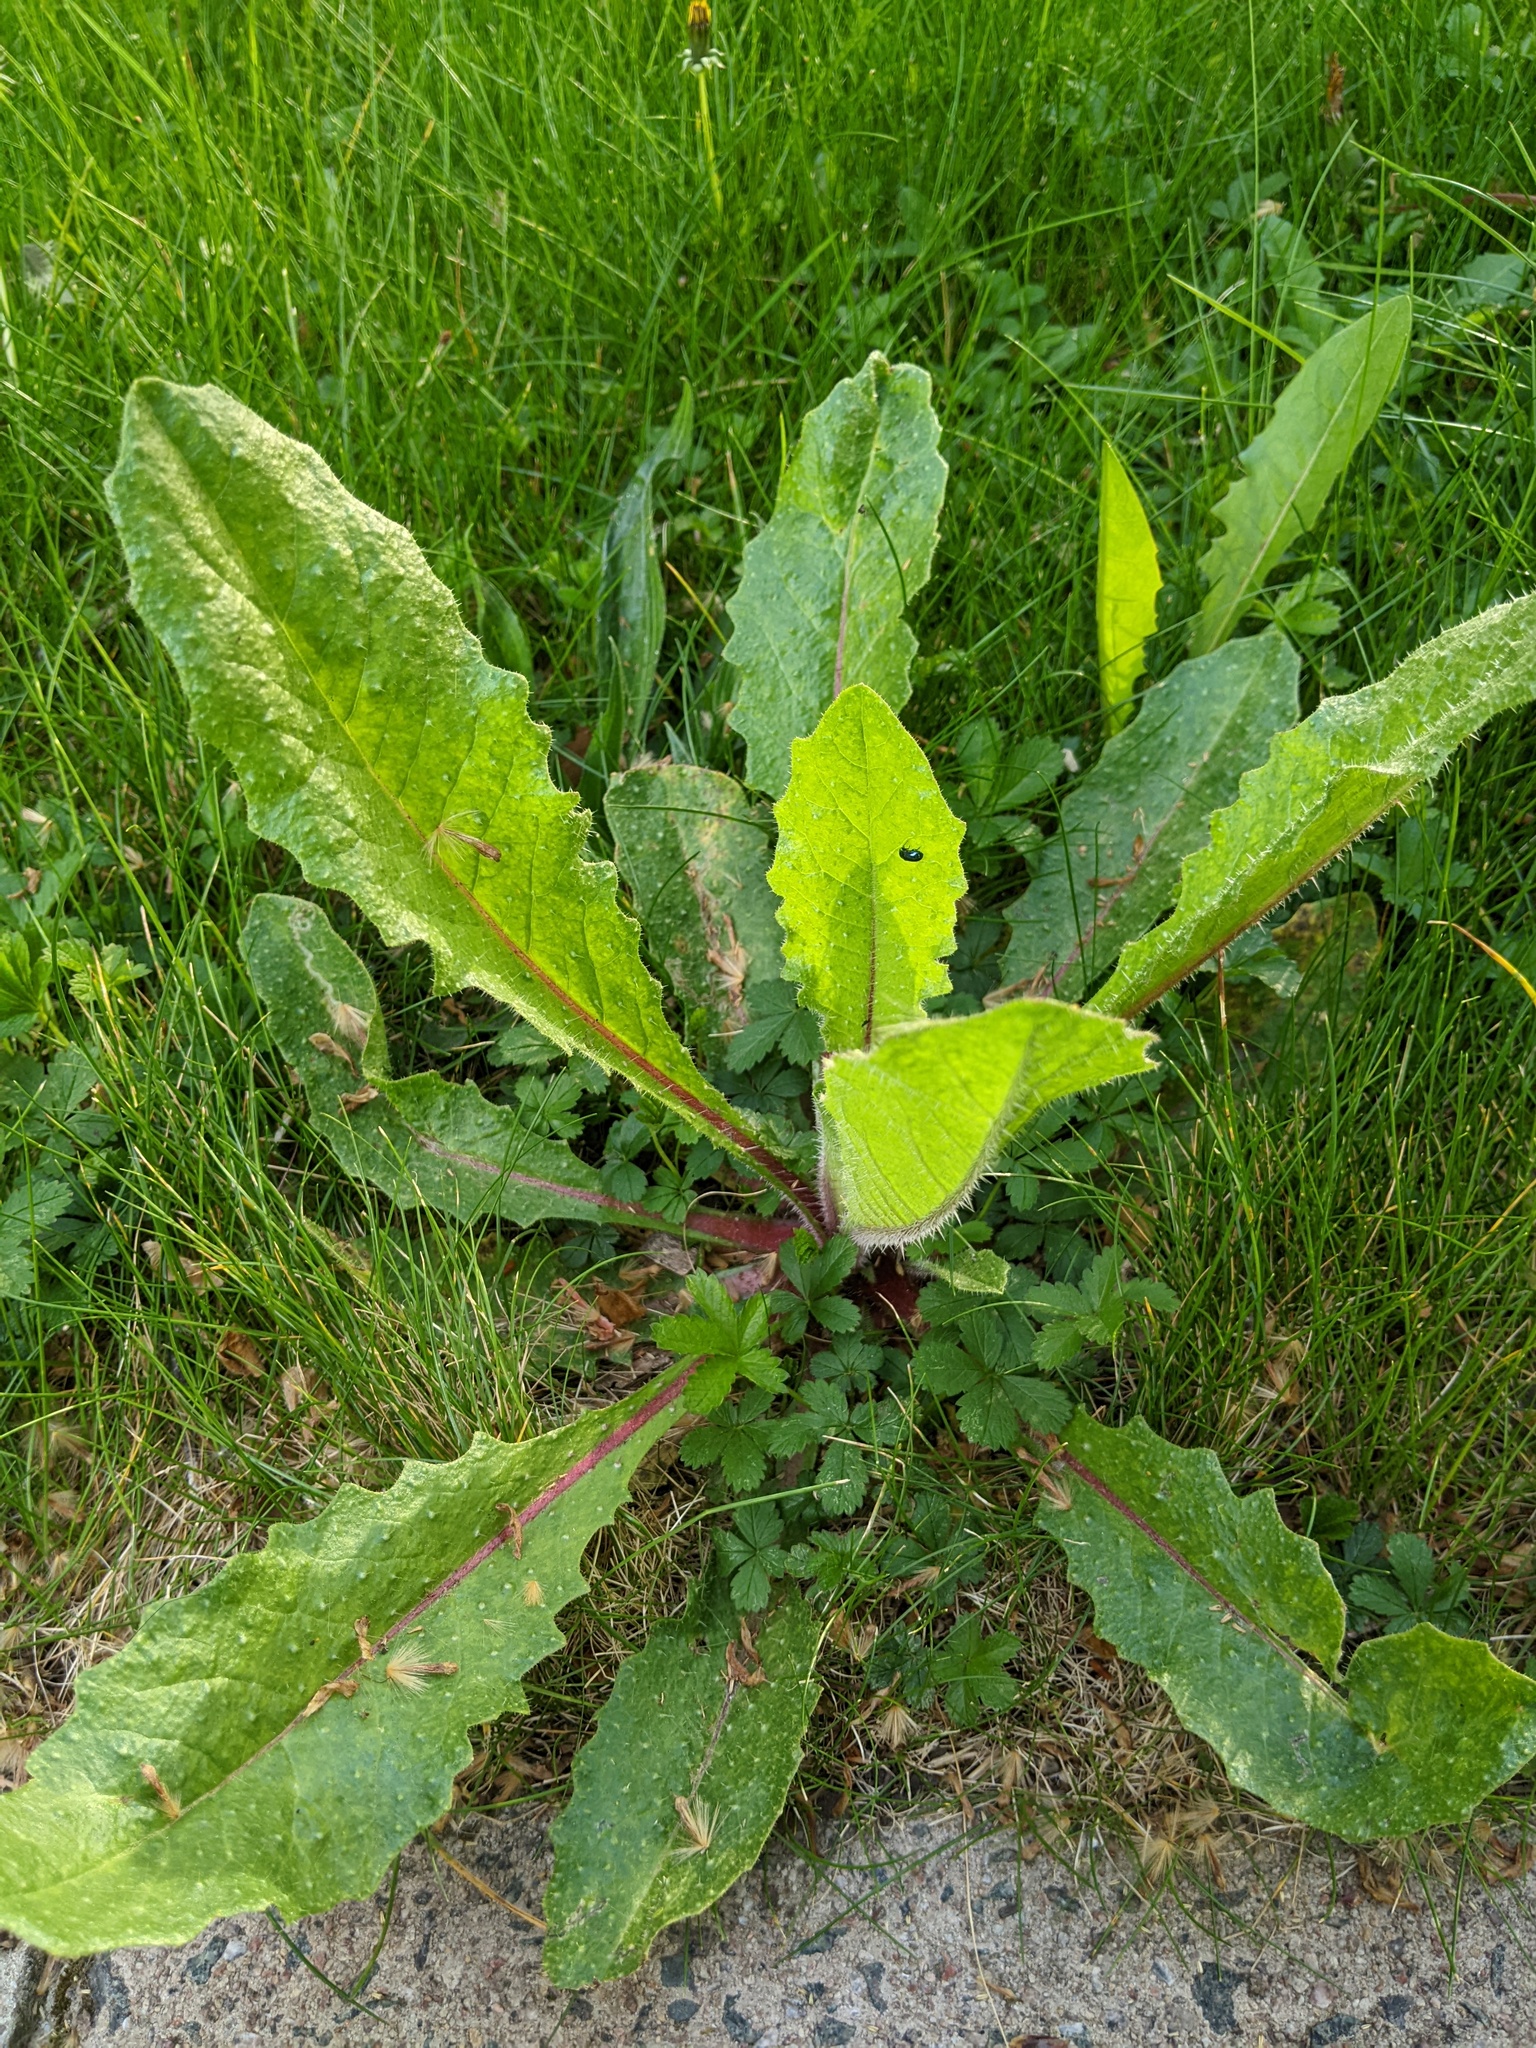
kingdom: Plantae
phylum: Tracheophyta
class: Magnoliopsida
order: Asterales
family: Asteraceae
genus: Helminthotheca
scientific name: Helminthotheca echioides
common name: Ox-tongue
